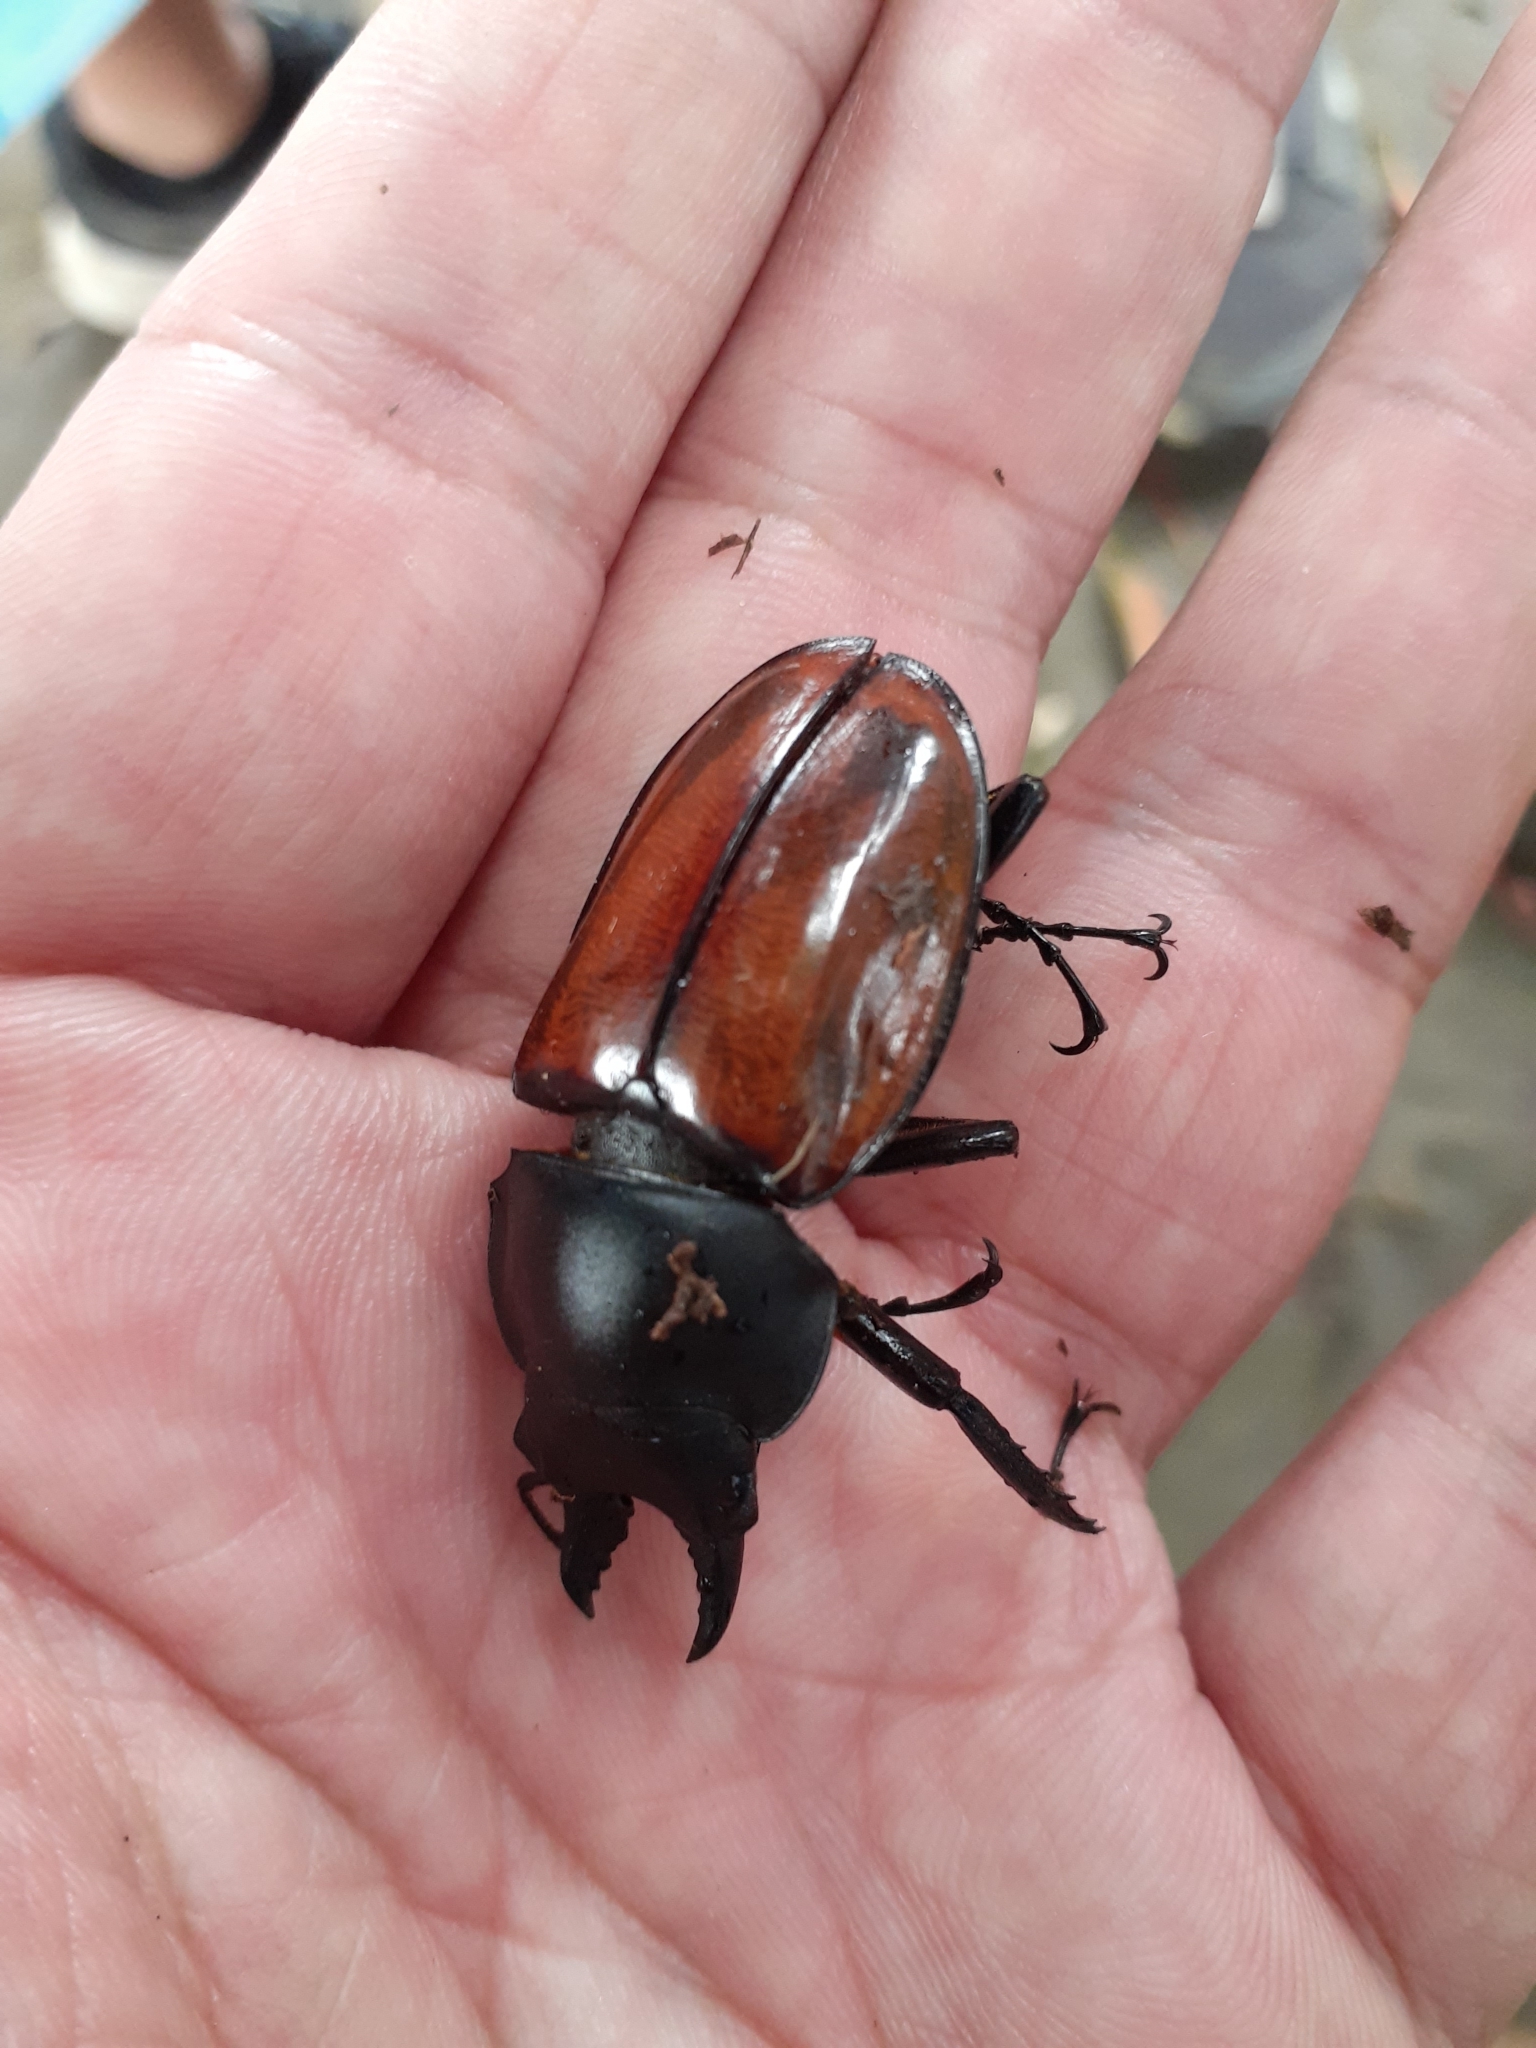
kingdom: Animalia
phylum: Arthropoda
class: Insecta
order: Coleoptera
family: Lucanidae
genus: Neolucanus
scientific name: Neolucanus swinhoei
